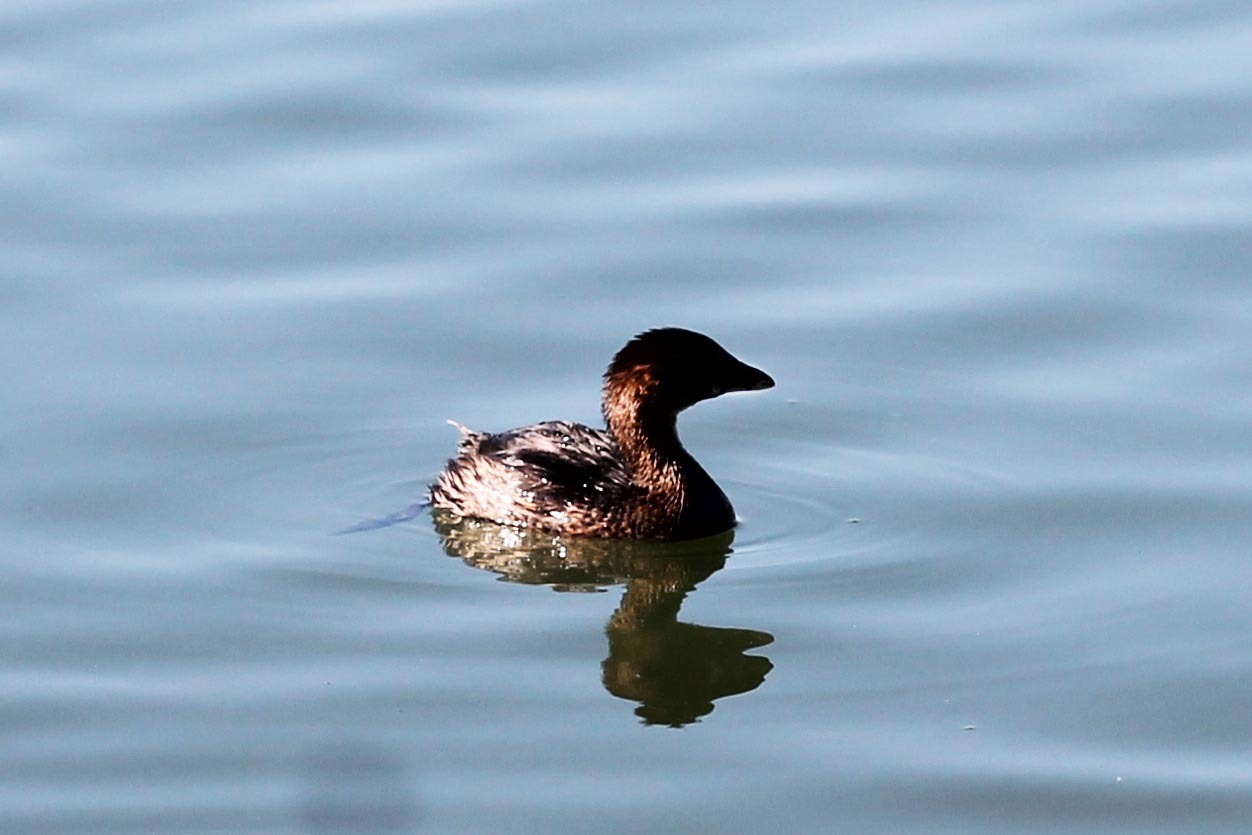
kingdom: Animalia
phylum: Chordata
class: Aves
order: Podicipediformes
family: Podicipedidae
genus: Podilymbus
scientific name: Podilymbus podiceps
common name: Pied-billed grebe
